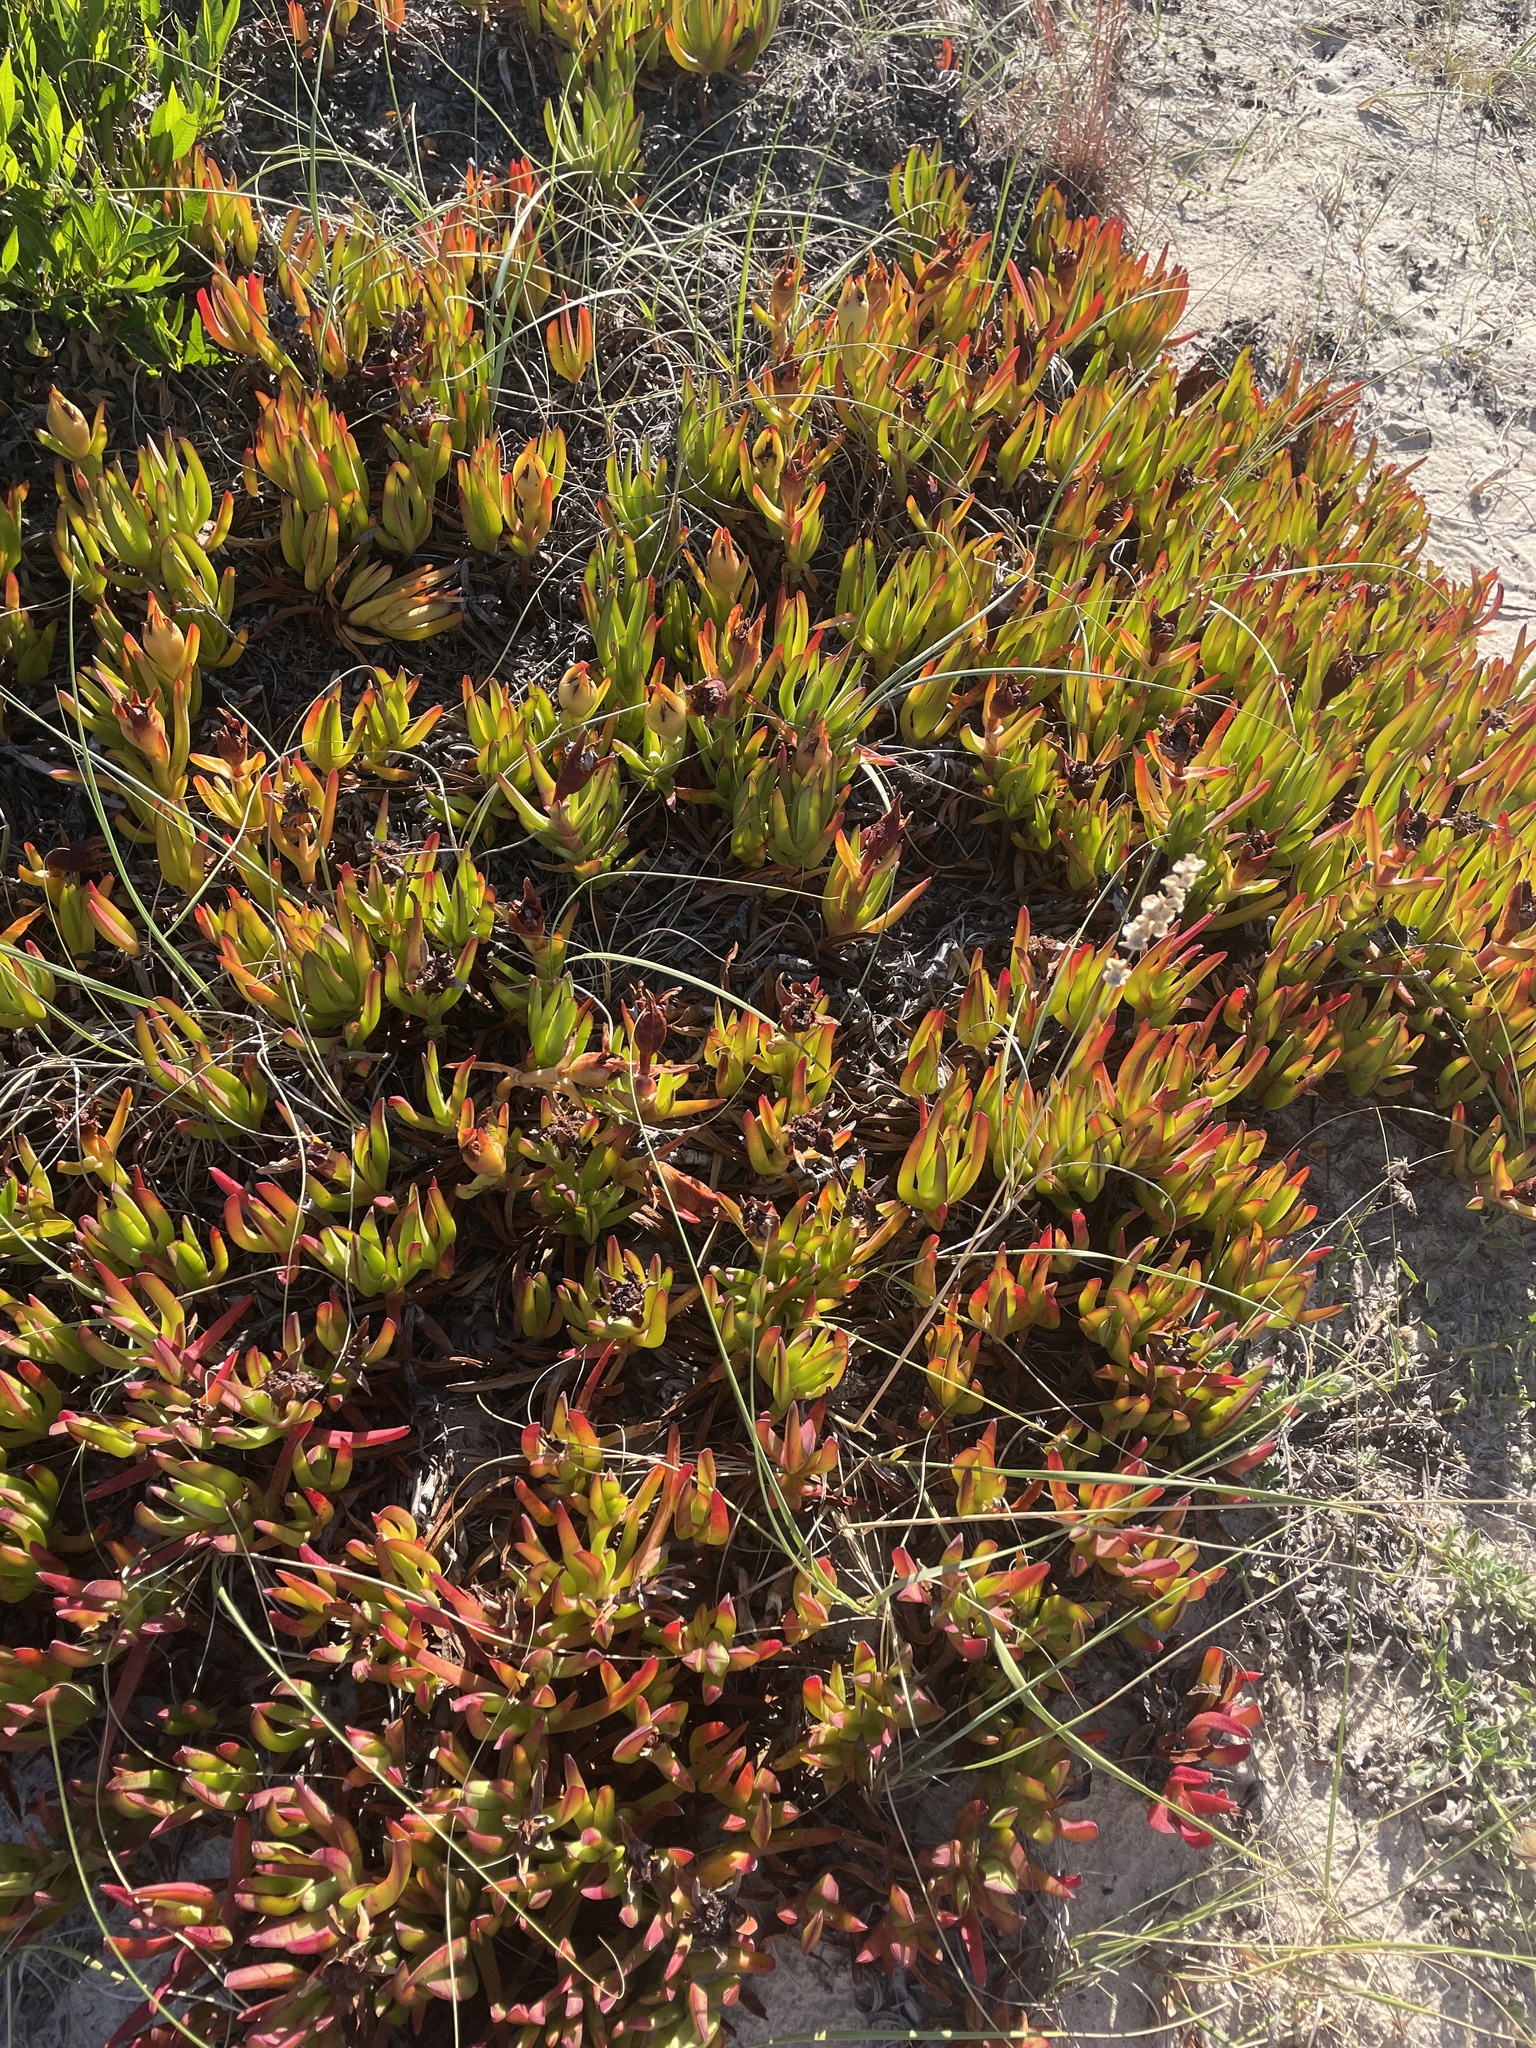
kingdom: Plantae
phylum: Tracheophyta
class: Magnoliopsida
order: Caryophyllales
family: Aizoaceae
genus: Carpobrotus
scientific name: Carpobrotus edulis
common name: Hottentot-fig
